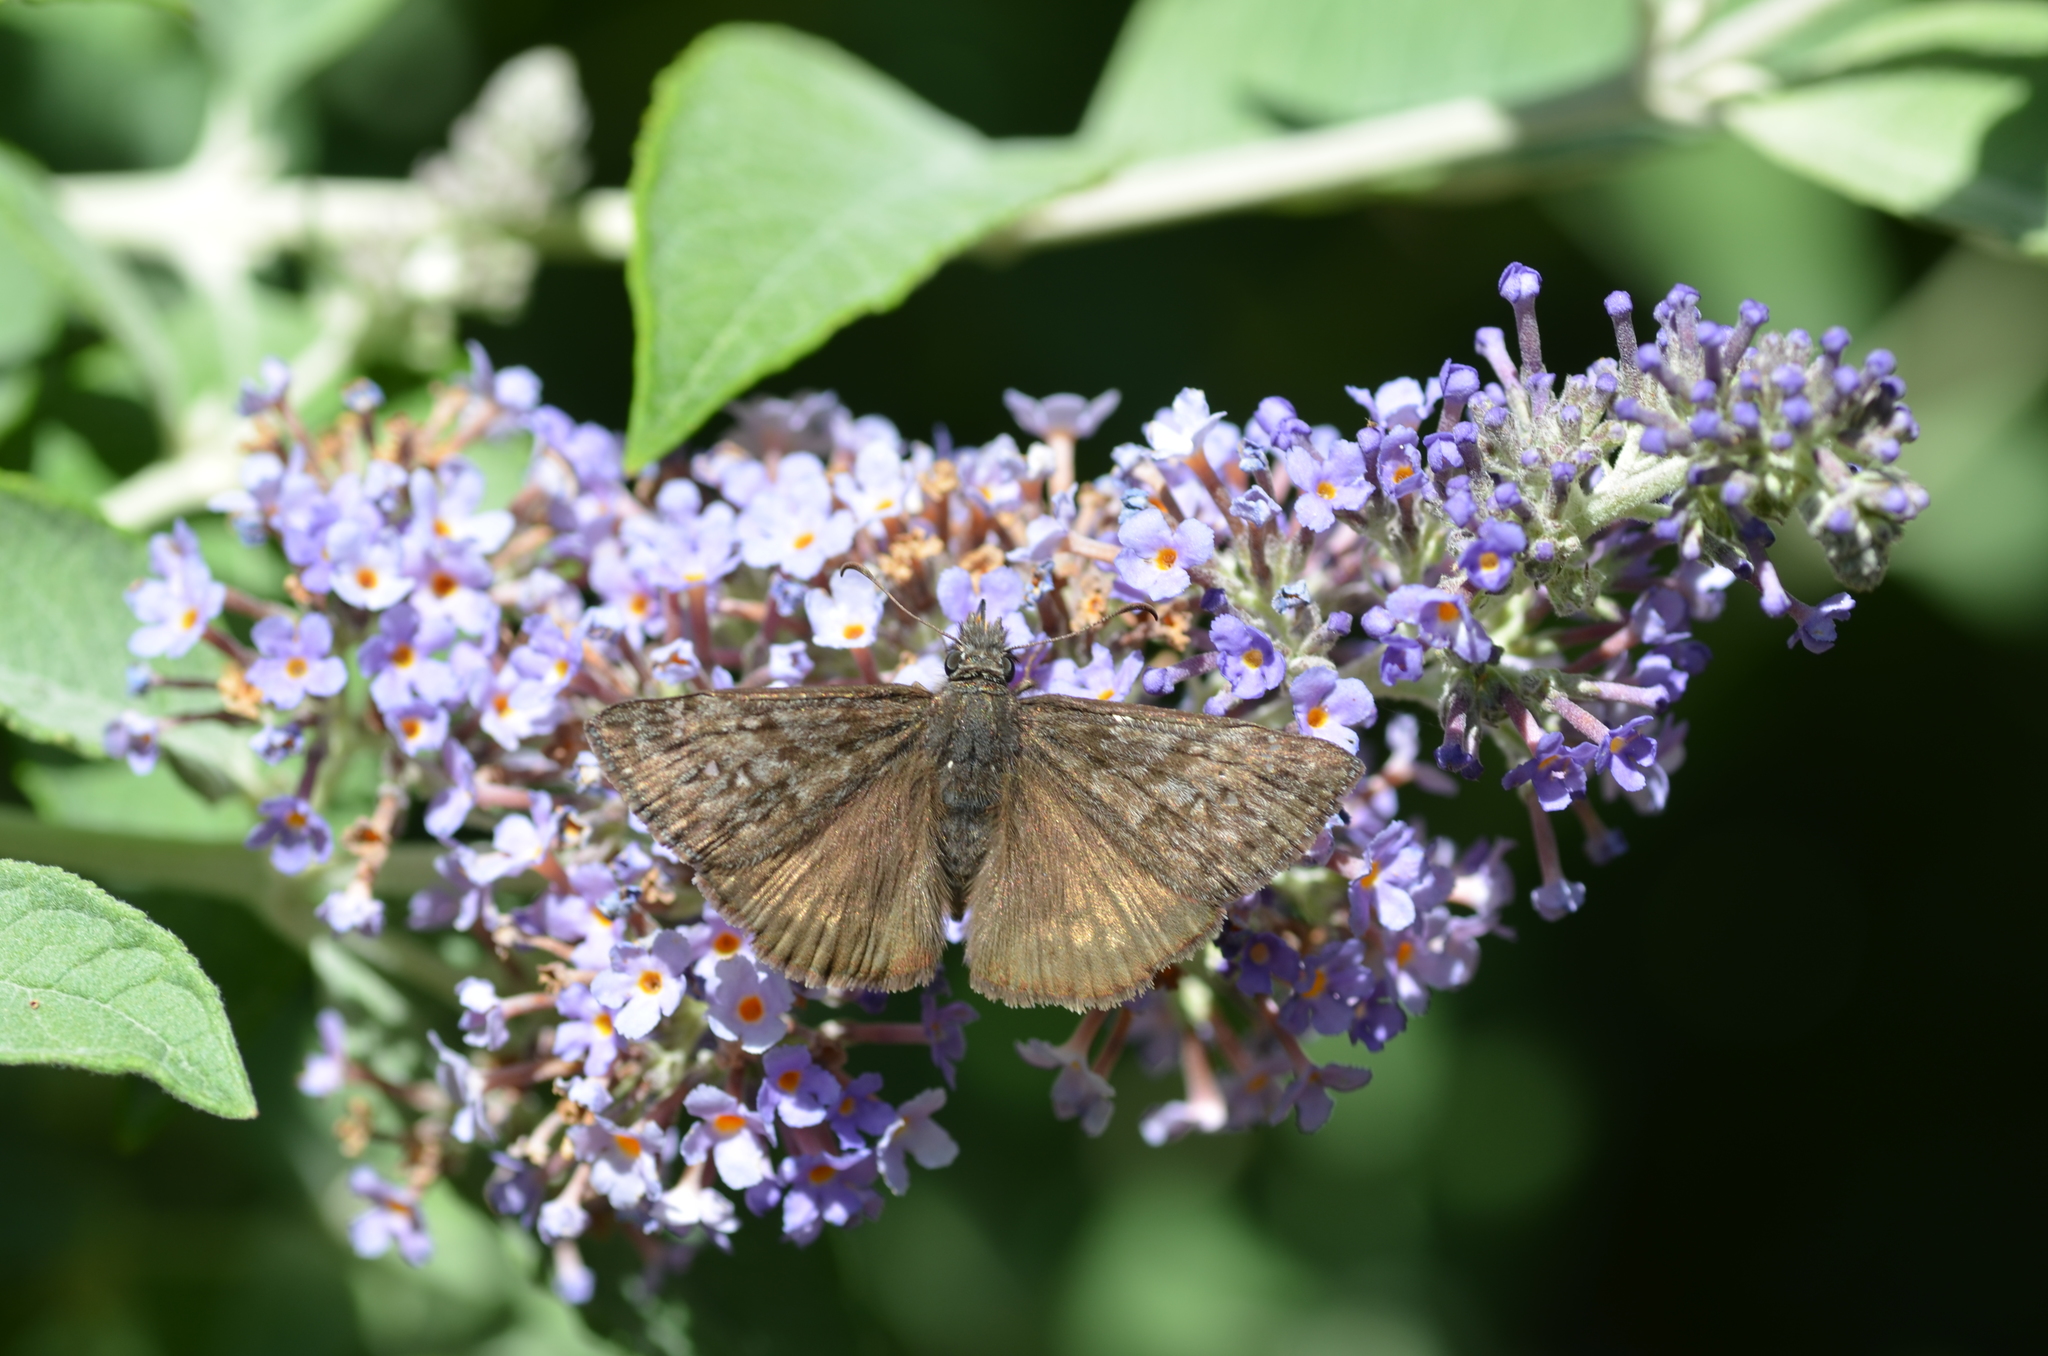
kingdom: Animalia
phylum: Arthropoda
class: Insecta
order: Lepidoptera
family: Hesperiidae
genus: Erynnis
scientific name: Erynnis propertius
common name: Propertius duskywing
